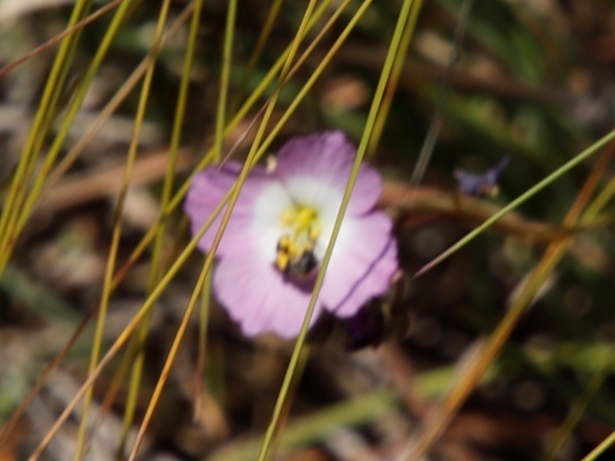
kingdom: Plantae
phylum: Tracheophyta
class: Magnoliopsida
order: Brassicales
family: Brassicaceae
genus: Heliophila
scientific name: Heliophila carnosa
